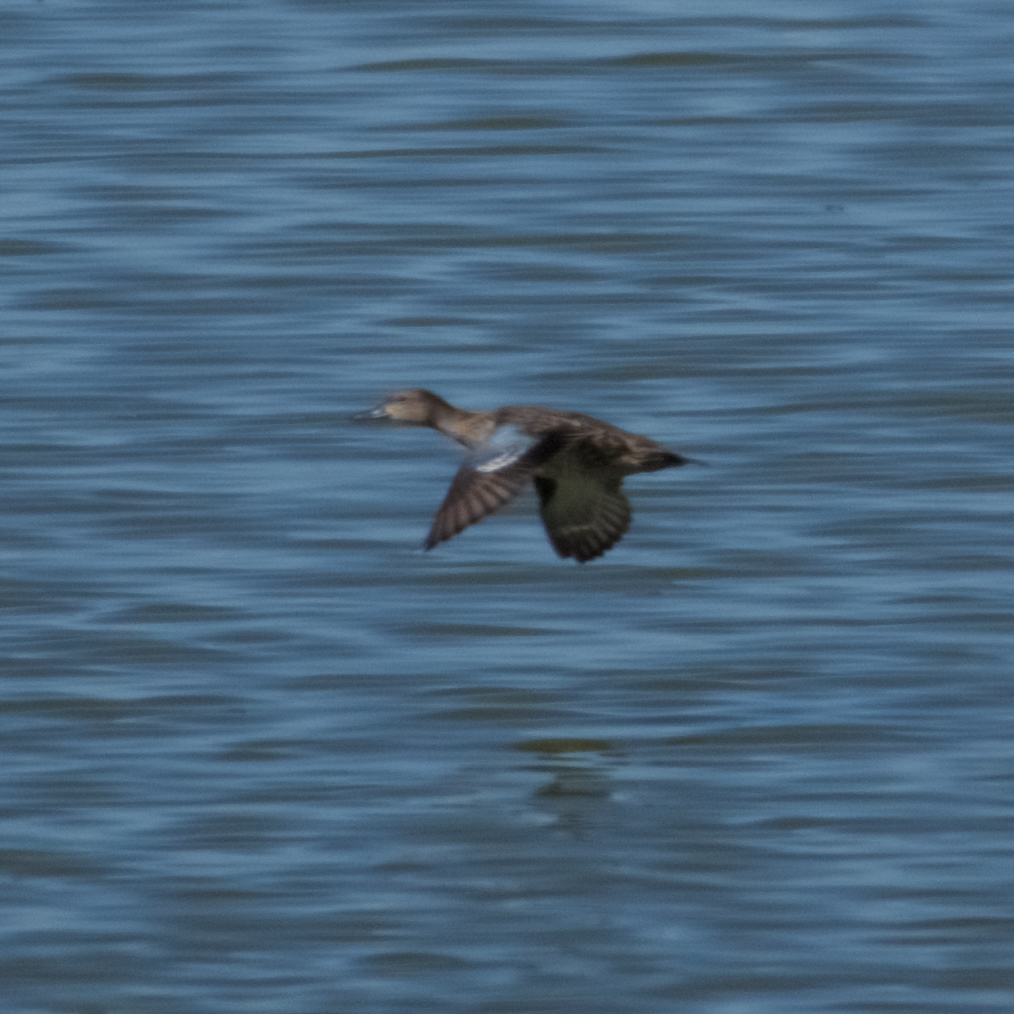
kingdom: Animalia
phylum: Chordata
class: Aves
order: Anseriformes
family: Anatidae
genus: Spatula
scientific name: Spatula discors
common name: Blue-winged teal
